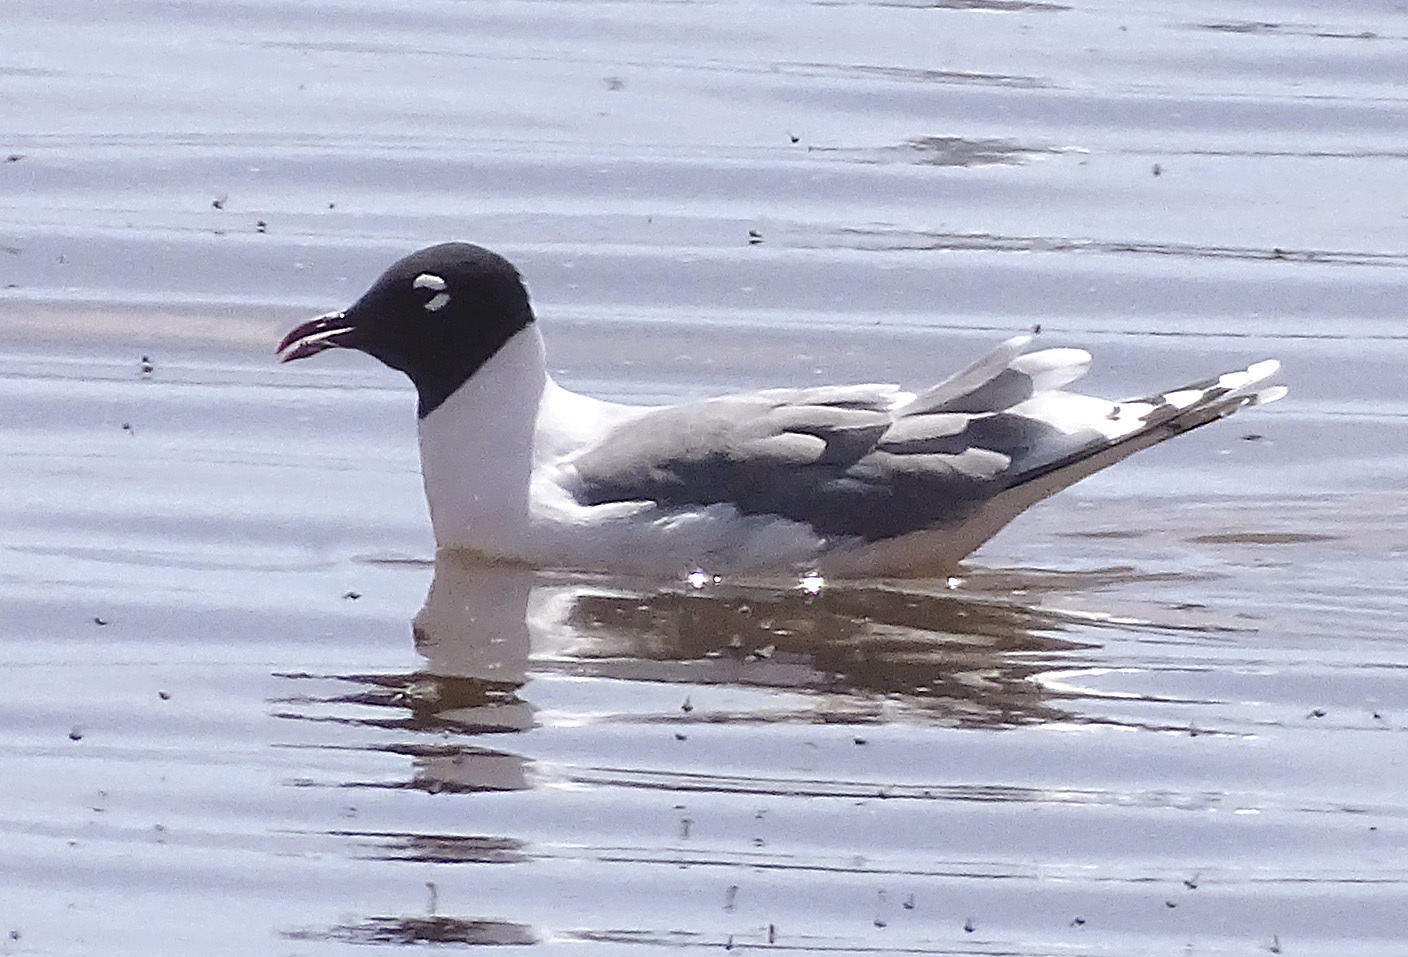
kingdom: Animalia
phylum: Chordata
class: Aves
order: Charadriiformes
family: Laridae
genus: Leucophaeus
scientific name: Leucophaeus pipixcan
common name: Franklin's gull
